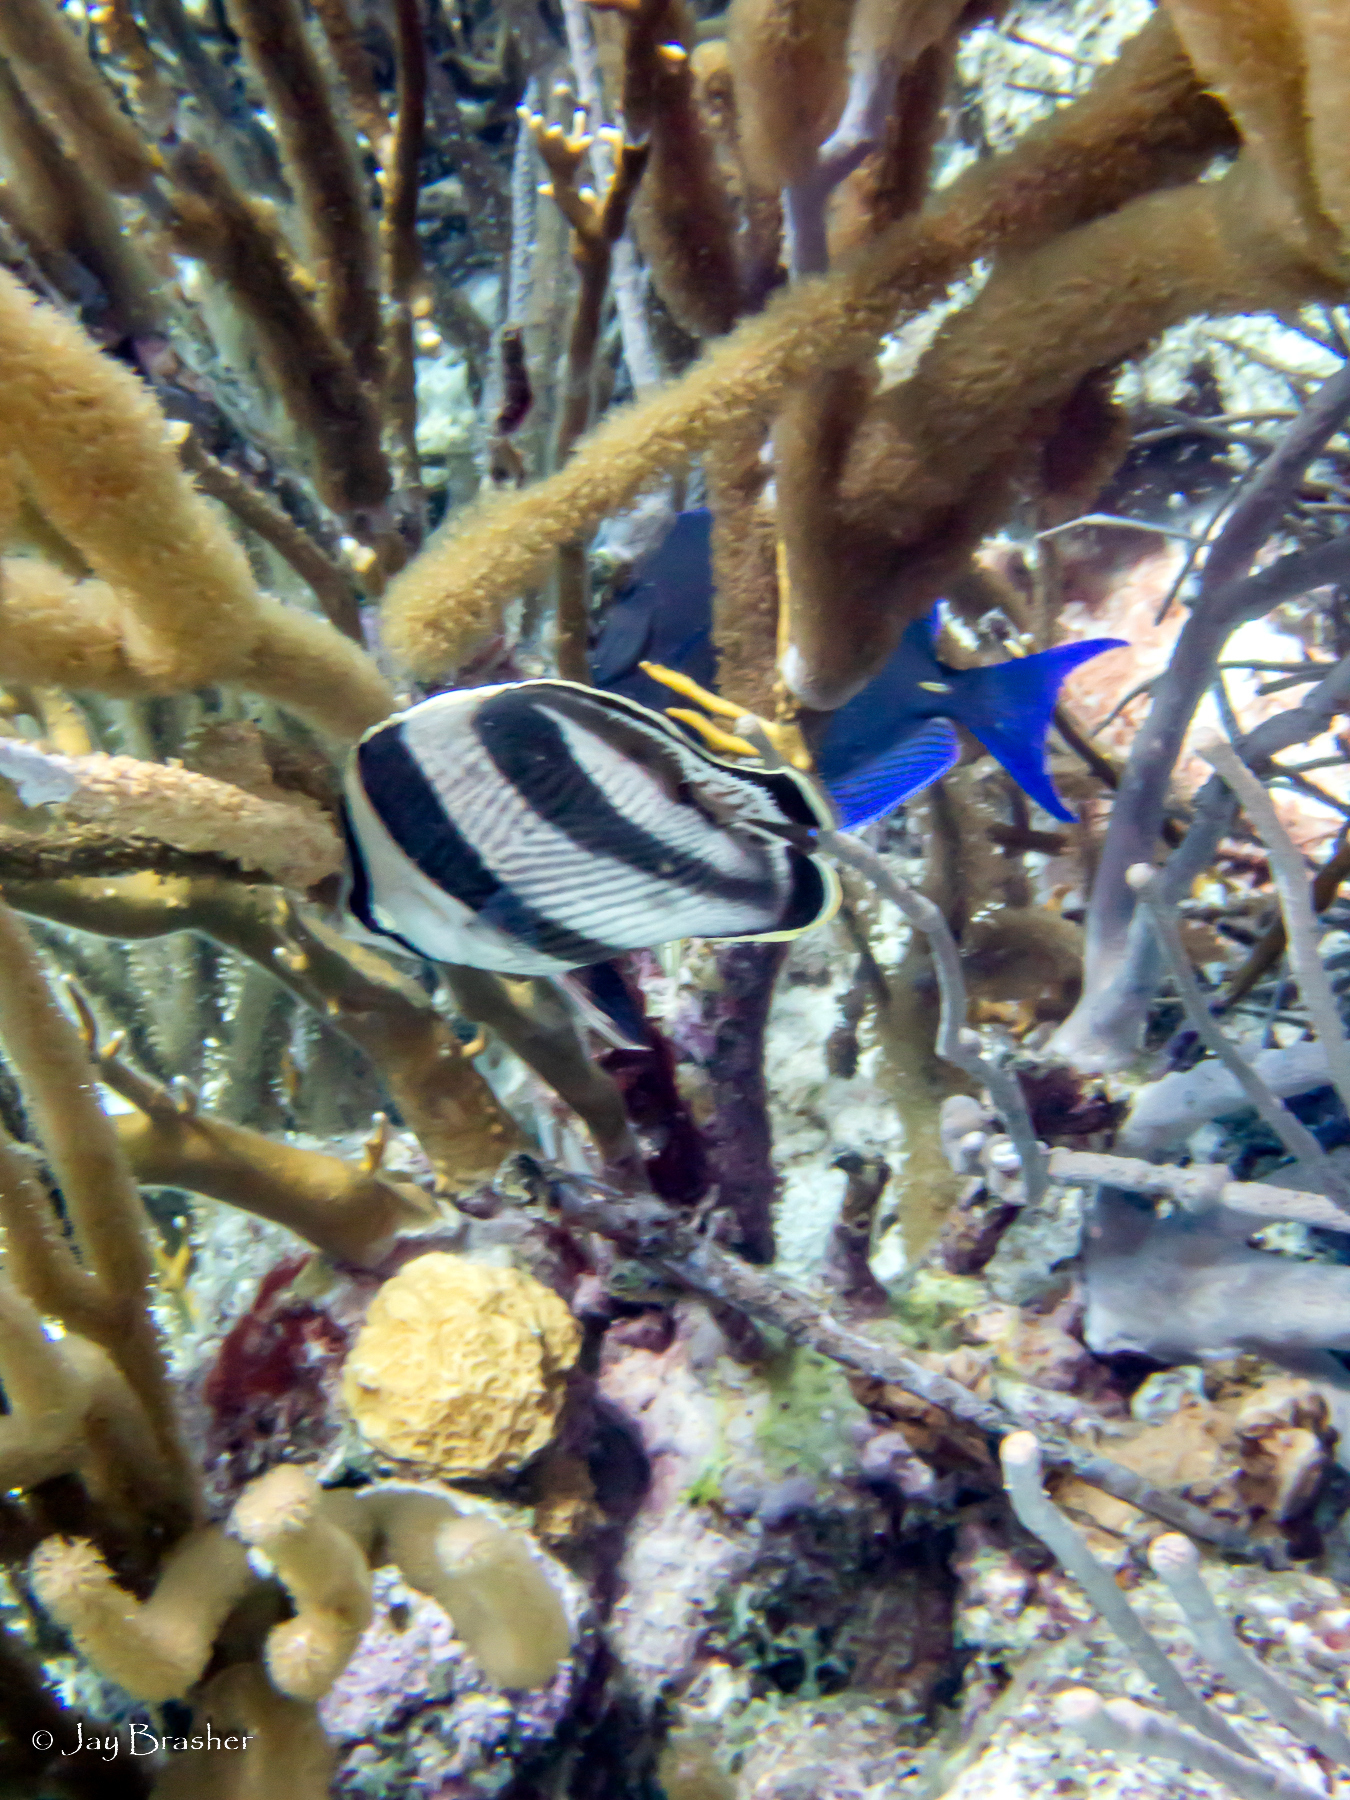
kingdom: Animalia
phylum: Chordata
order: Perciformes
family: Chaetodontidae
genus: Chaetodon
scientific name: Chaetodon striatus
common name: Banded butterflyfish
